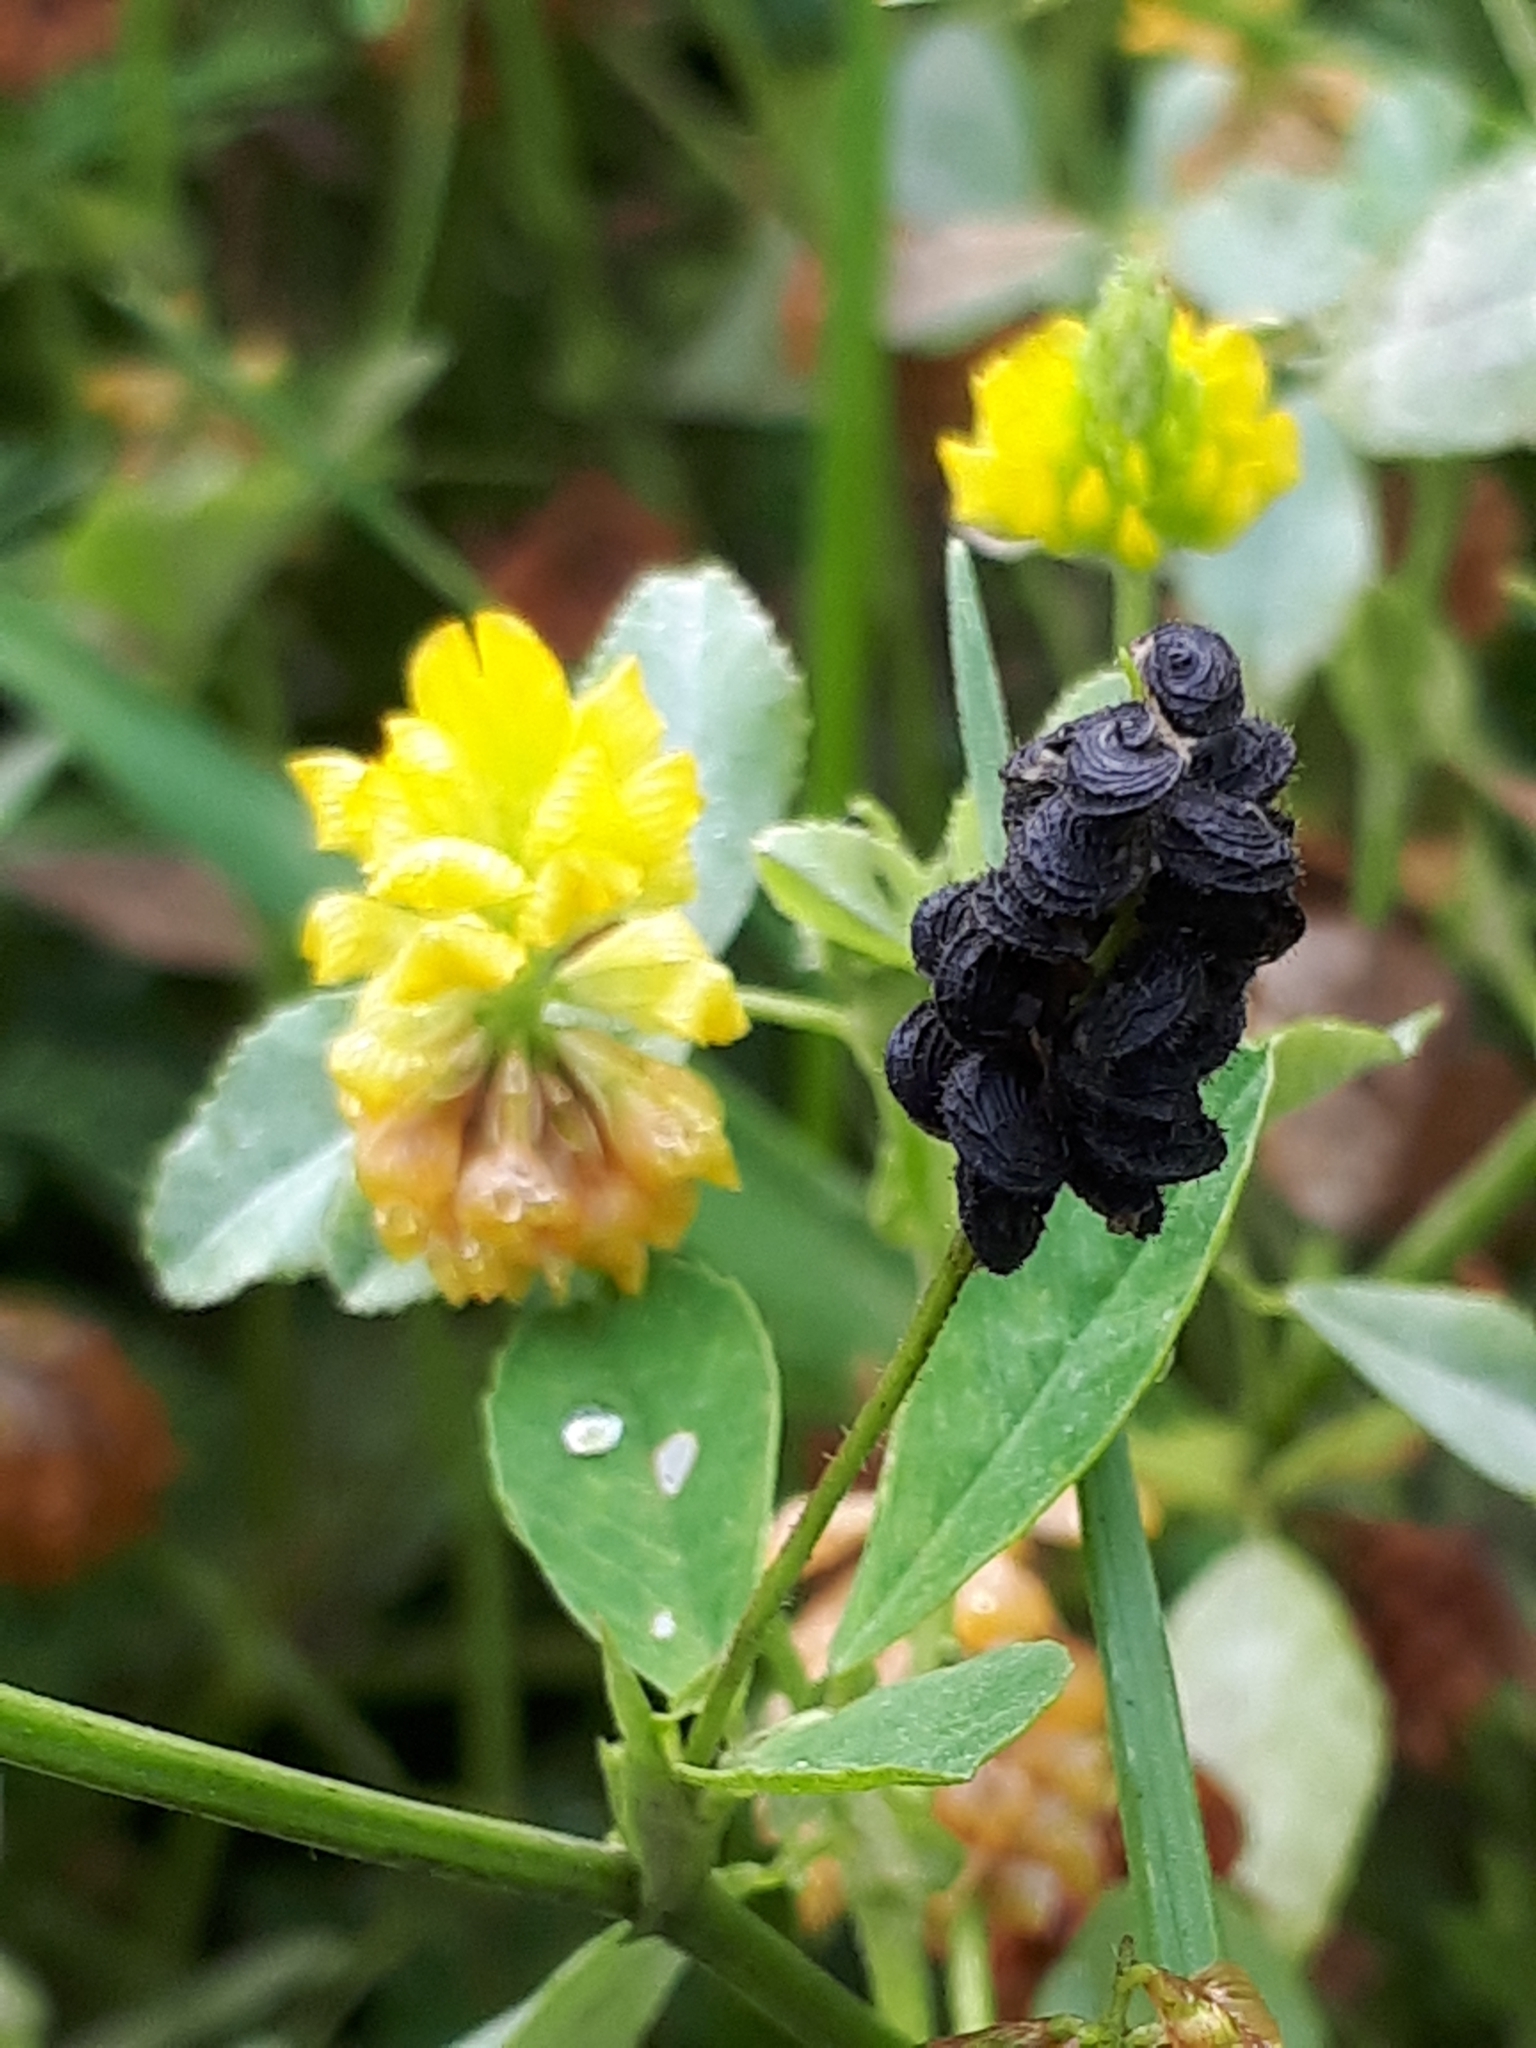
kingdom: Plantae
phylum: Tracheophyta
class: Magnoliopsida
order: Fabales
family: Fabaceae
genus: Trifolium
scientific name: Trifolium campestre
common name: Field clover
